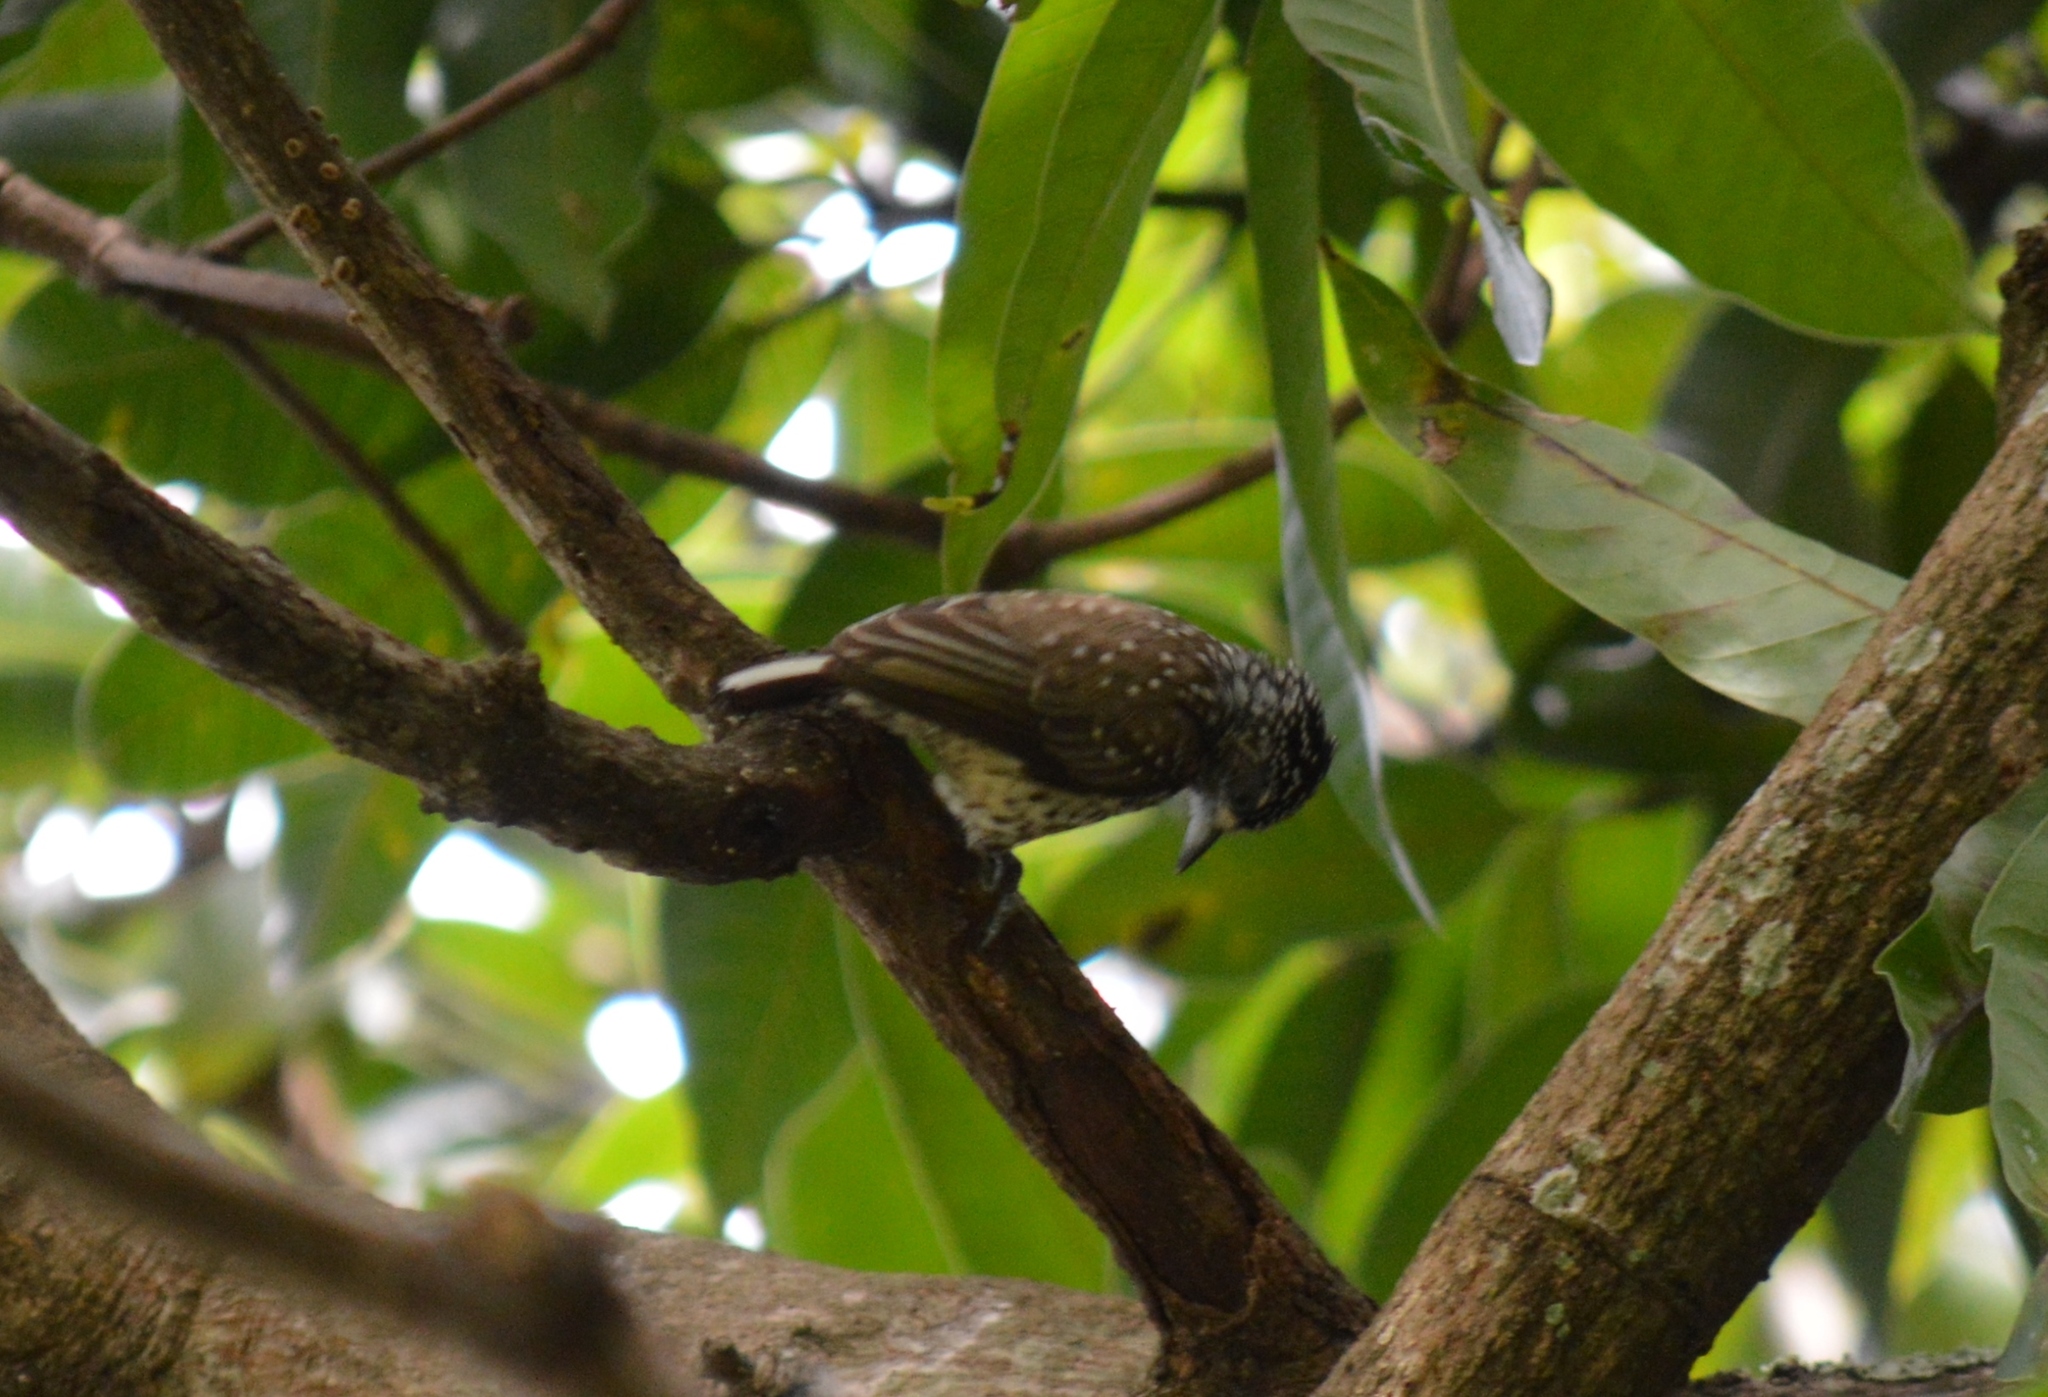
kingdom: Animalia
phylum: Chordata
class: Aves
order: Piciformes
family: Picidae
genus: Picumnus
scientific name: Picumnus albosquamatus
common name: White-wedged piculet
